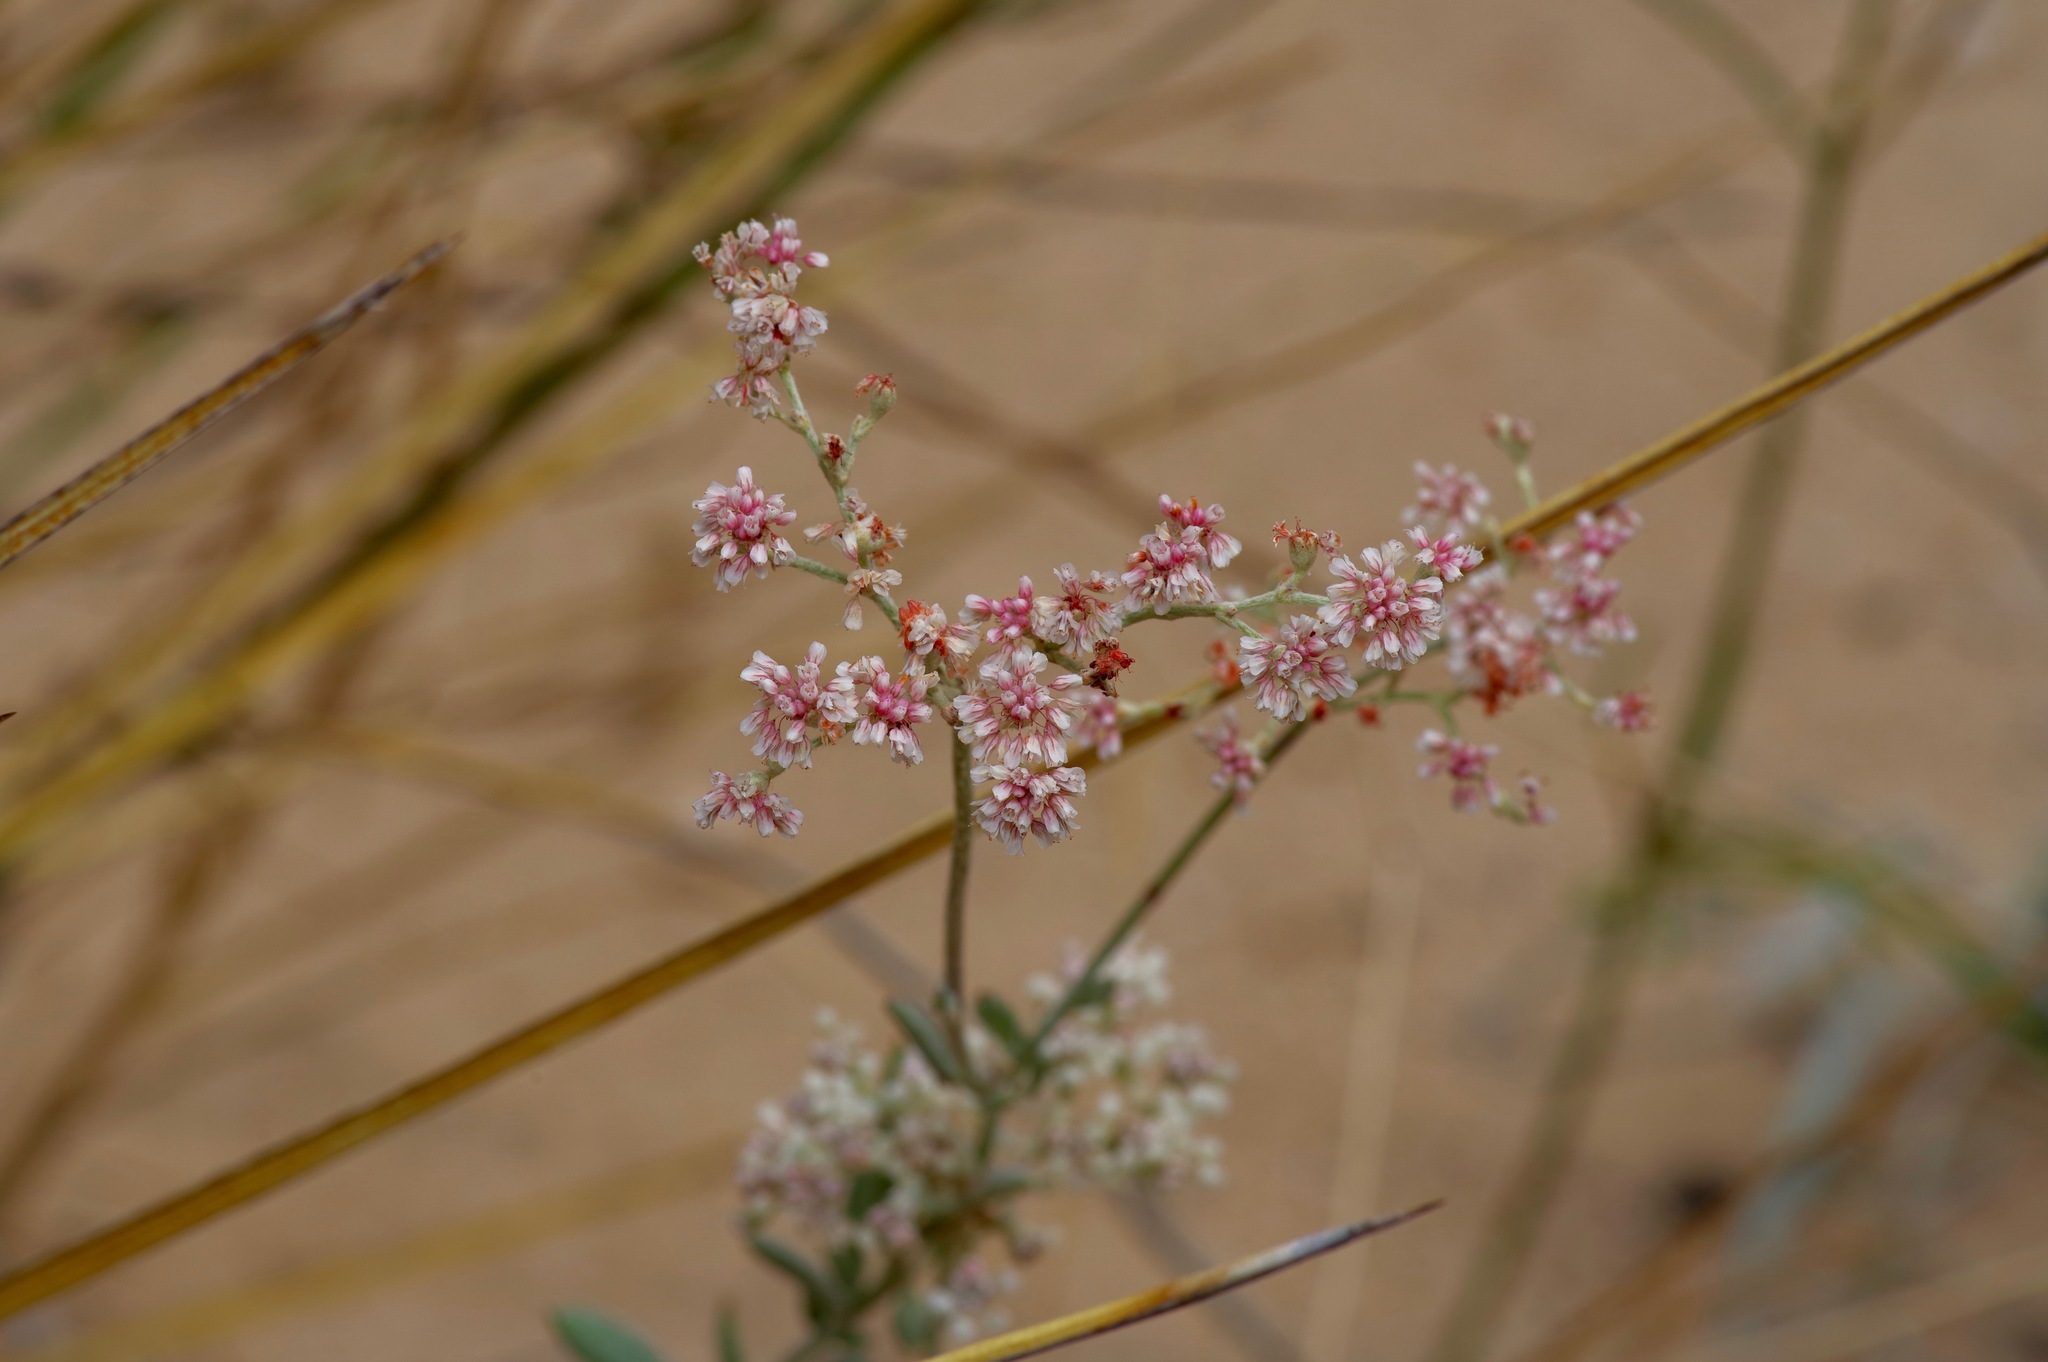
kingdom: Plantae
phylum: Tracheophyta
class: Magnoliopsida
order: Caryophyllales
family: Polygonaceae
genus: Eriogonum
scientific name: Eriogonum annuum
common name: Annual wild buckwheat
